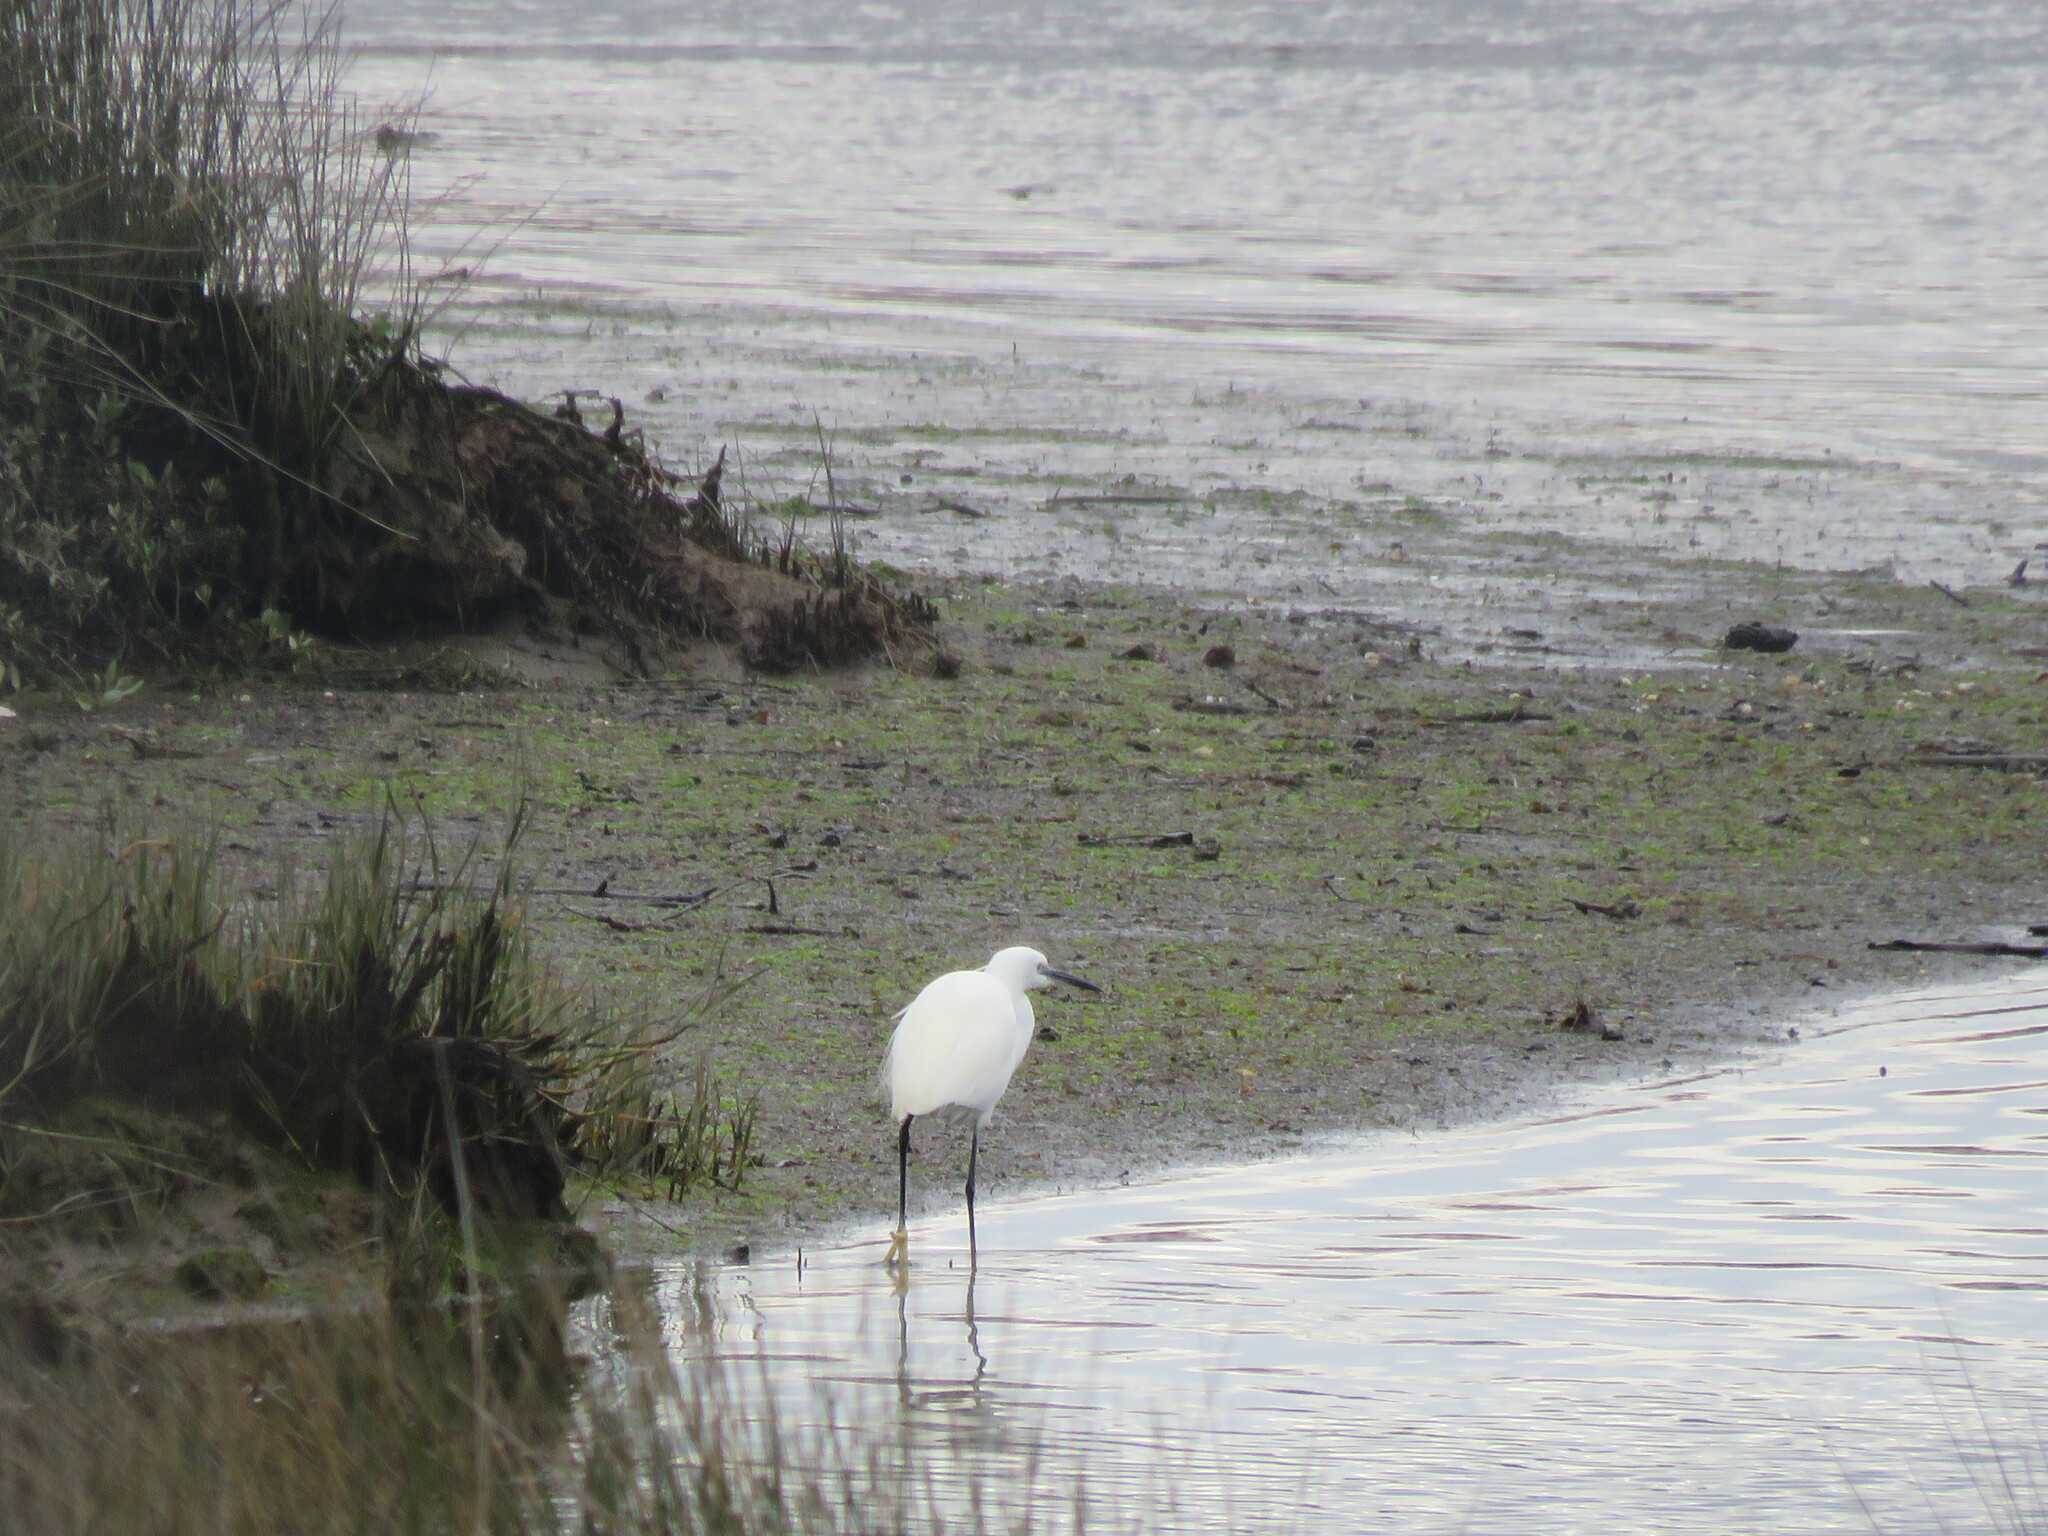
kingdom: Animalia
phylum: Chordata
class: Aves
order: Pelecaniformes
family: Ardeidae
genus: Egretta
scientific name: Egretta garzetta
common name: Little egret
